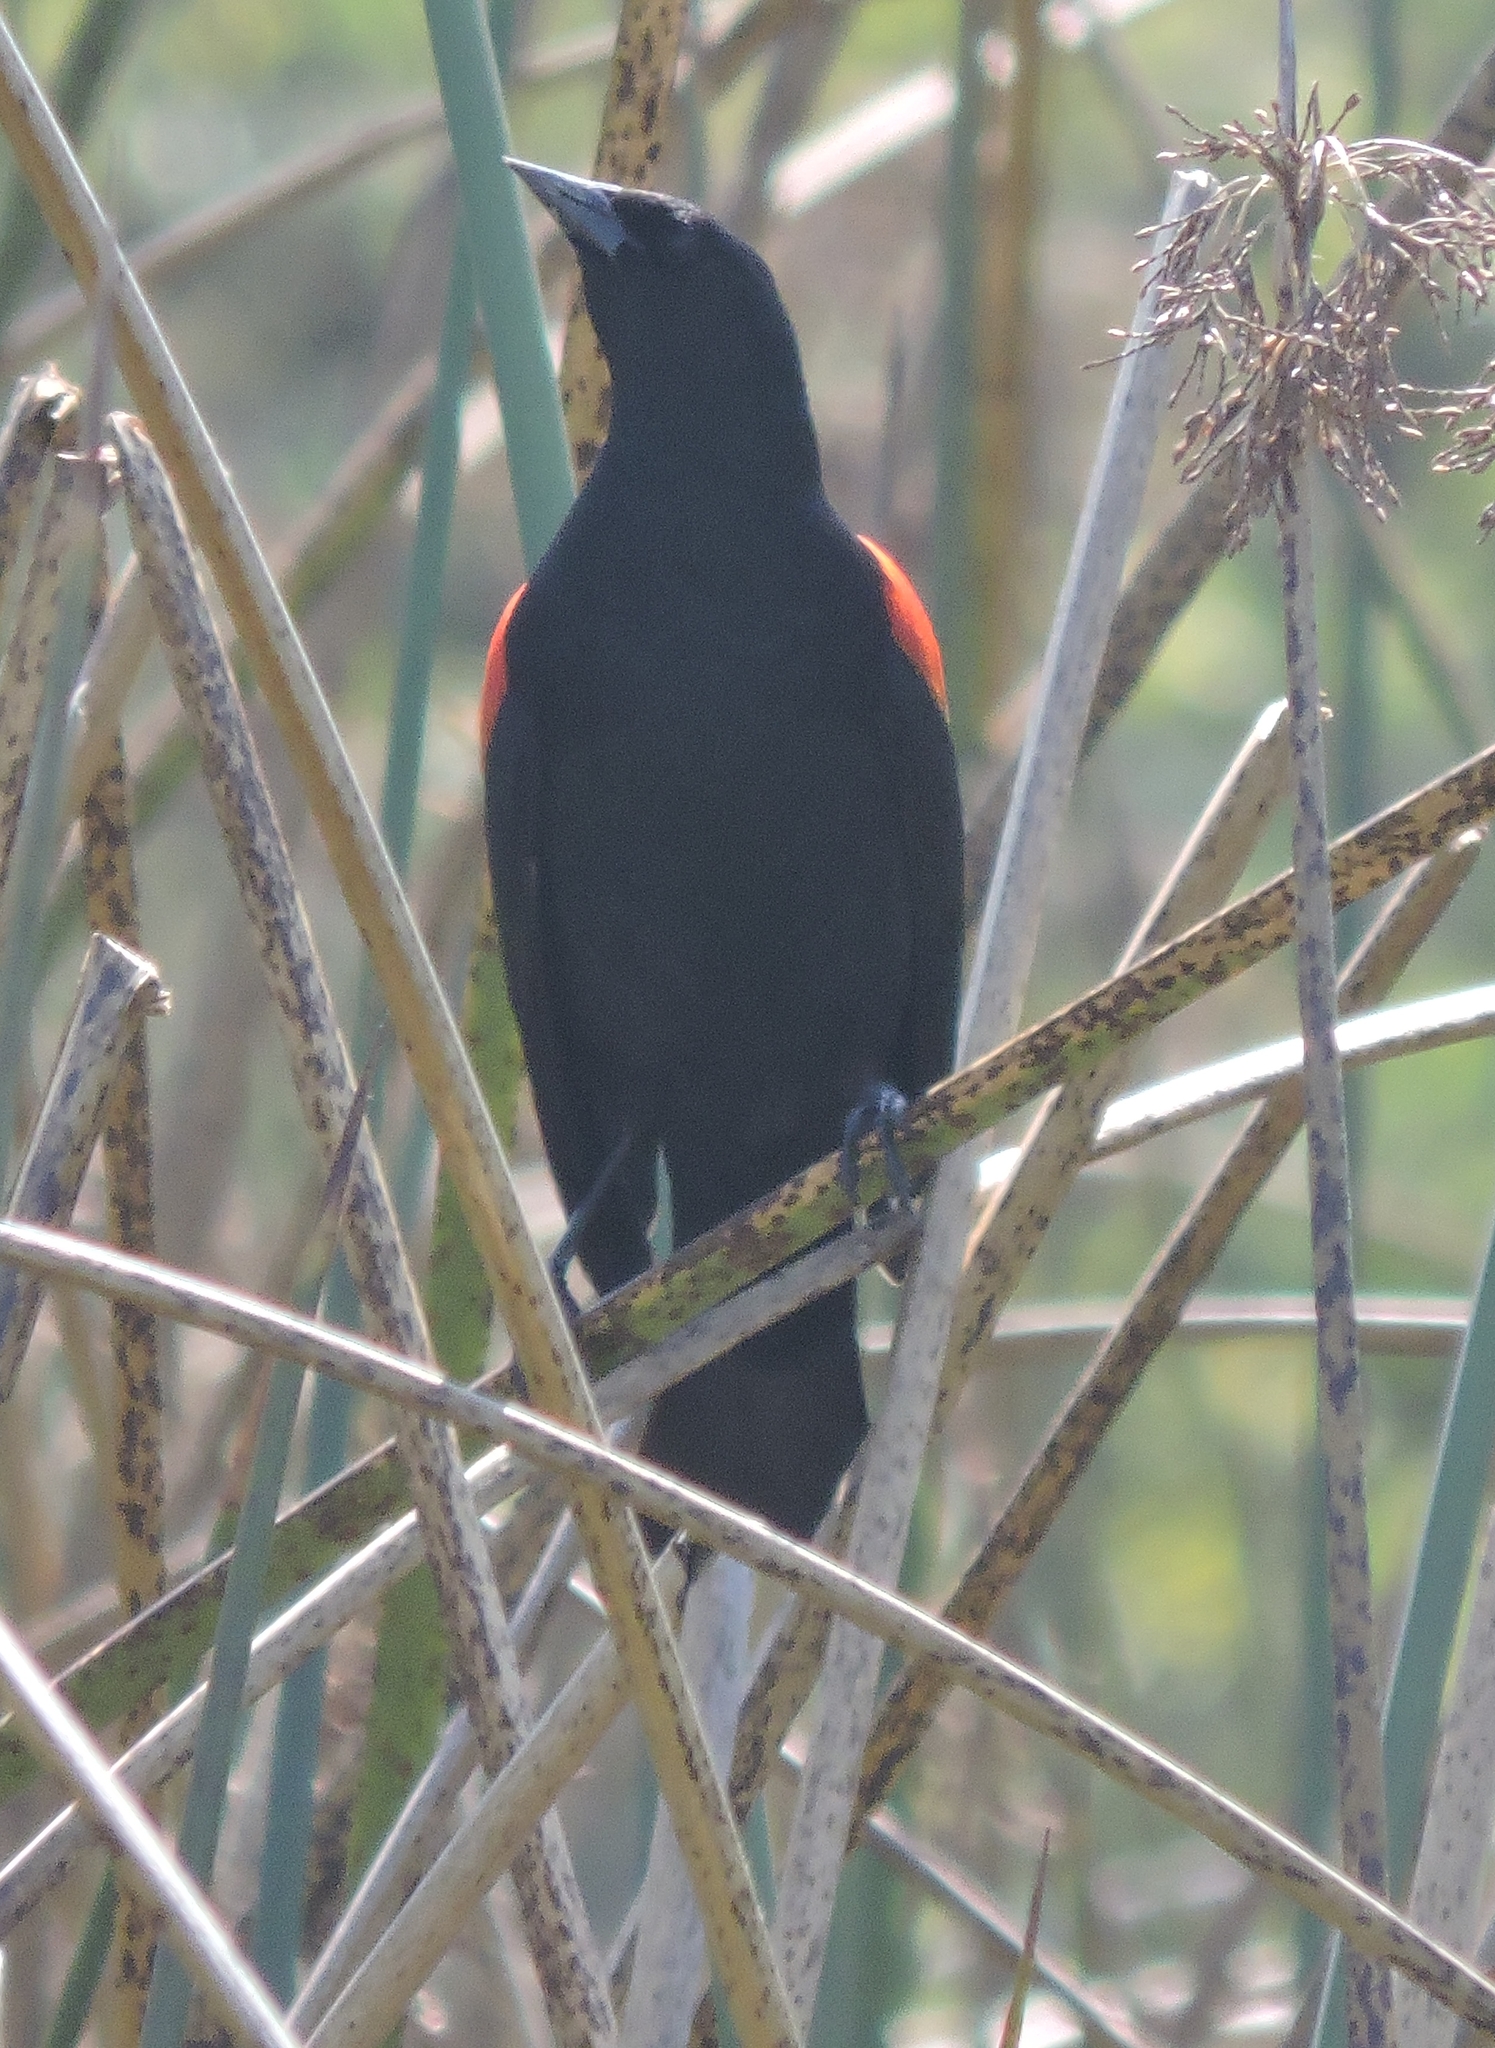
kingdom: Animalia
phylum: Chordata
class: Aves
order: Passeriformes
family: Icteridae
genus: Agelaius
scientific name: Agelaius phoeniceus
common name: Red-winged blackbird
